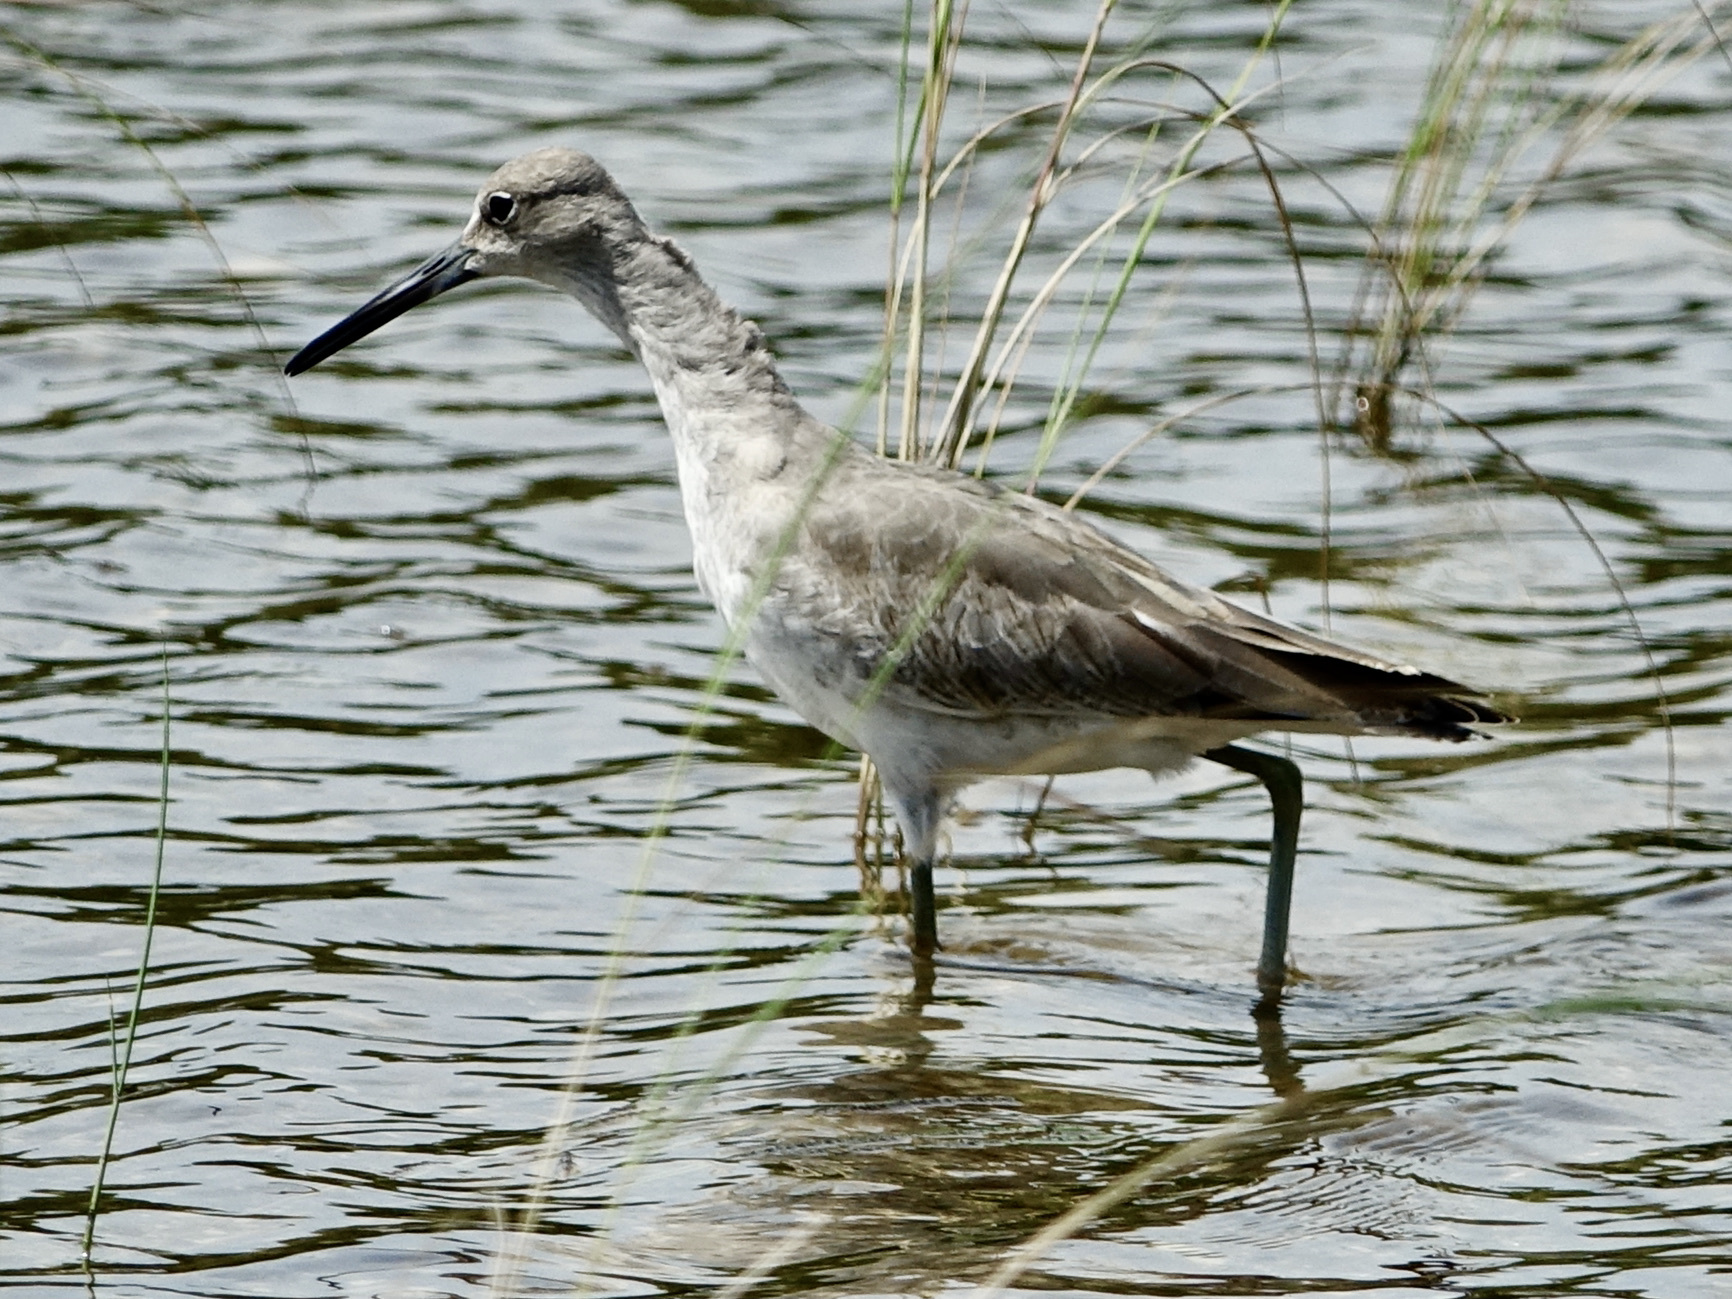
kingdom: Animalia
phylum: Chordata
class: Aves
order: Charadriiformes
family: Scolopacidae
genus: Tringa
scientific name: Tringa semipalmata
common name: Willet
